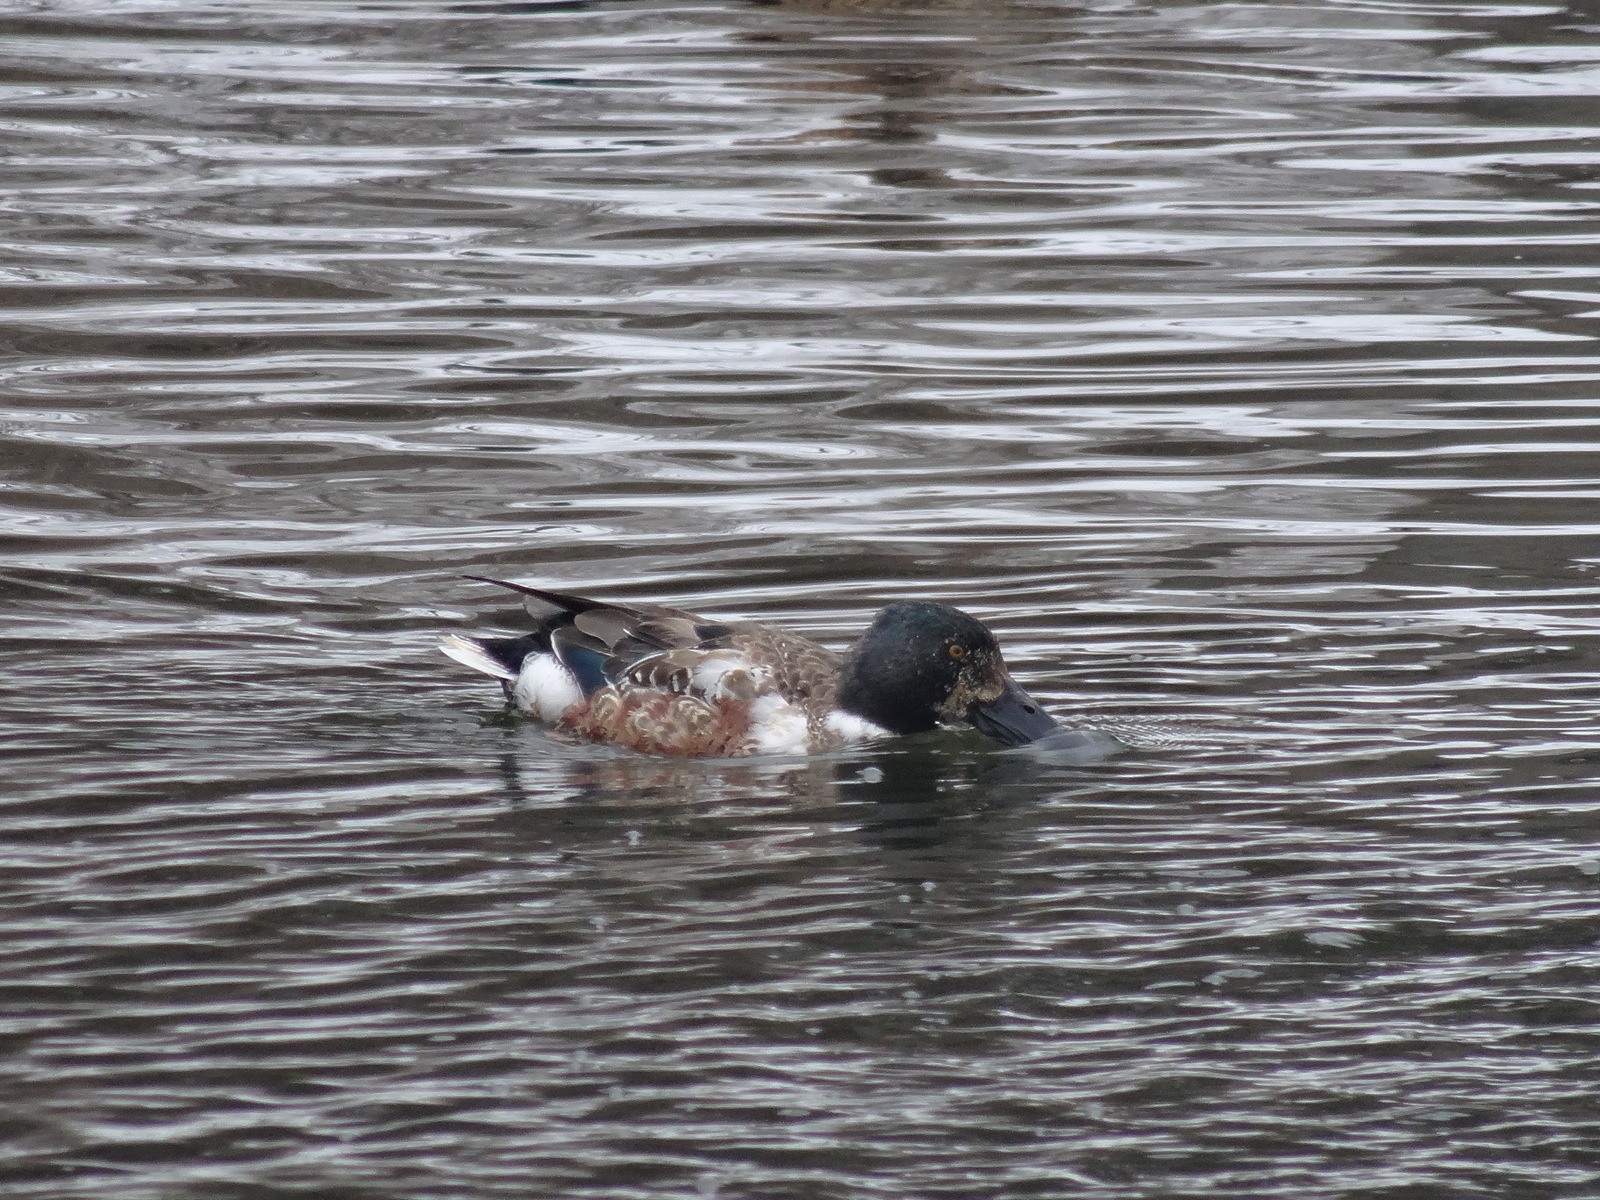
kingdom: Animalia
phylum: Chordata
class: Aves
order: Anseriformes
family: Anatidae
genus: Spatula
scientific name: Spatula clypeata
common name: Northern shoveler
